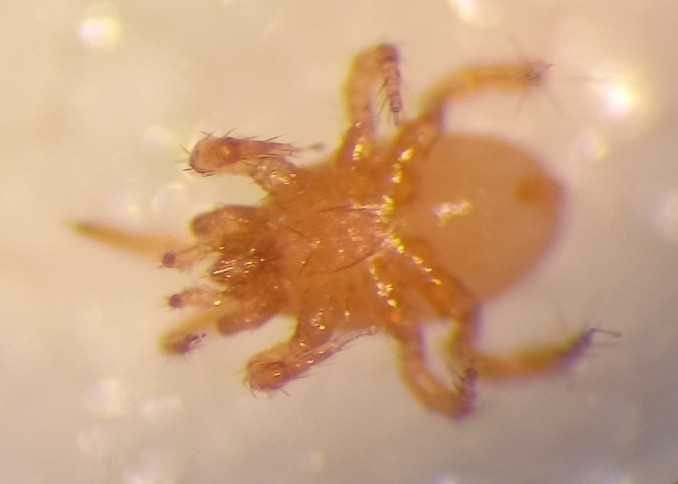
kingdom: Animalia
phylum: Arthropoda
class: Arachnida
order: Mesostigmata
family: Parasitidae
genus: Parasitellus
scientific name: Parasitellus fucorum
